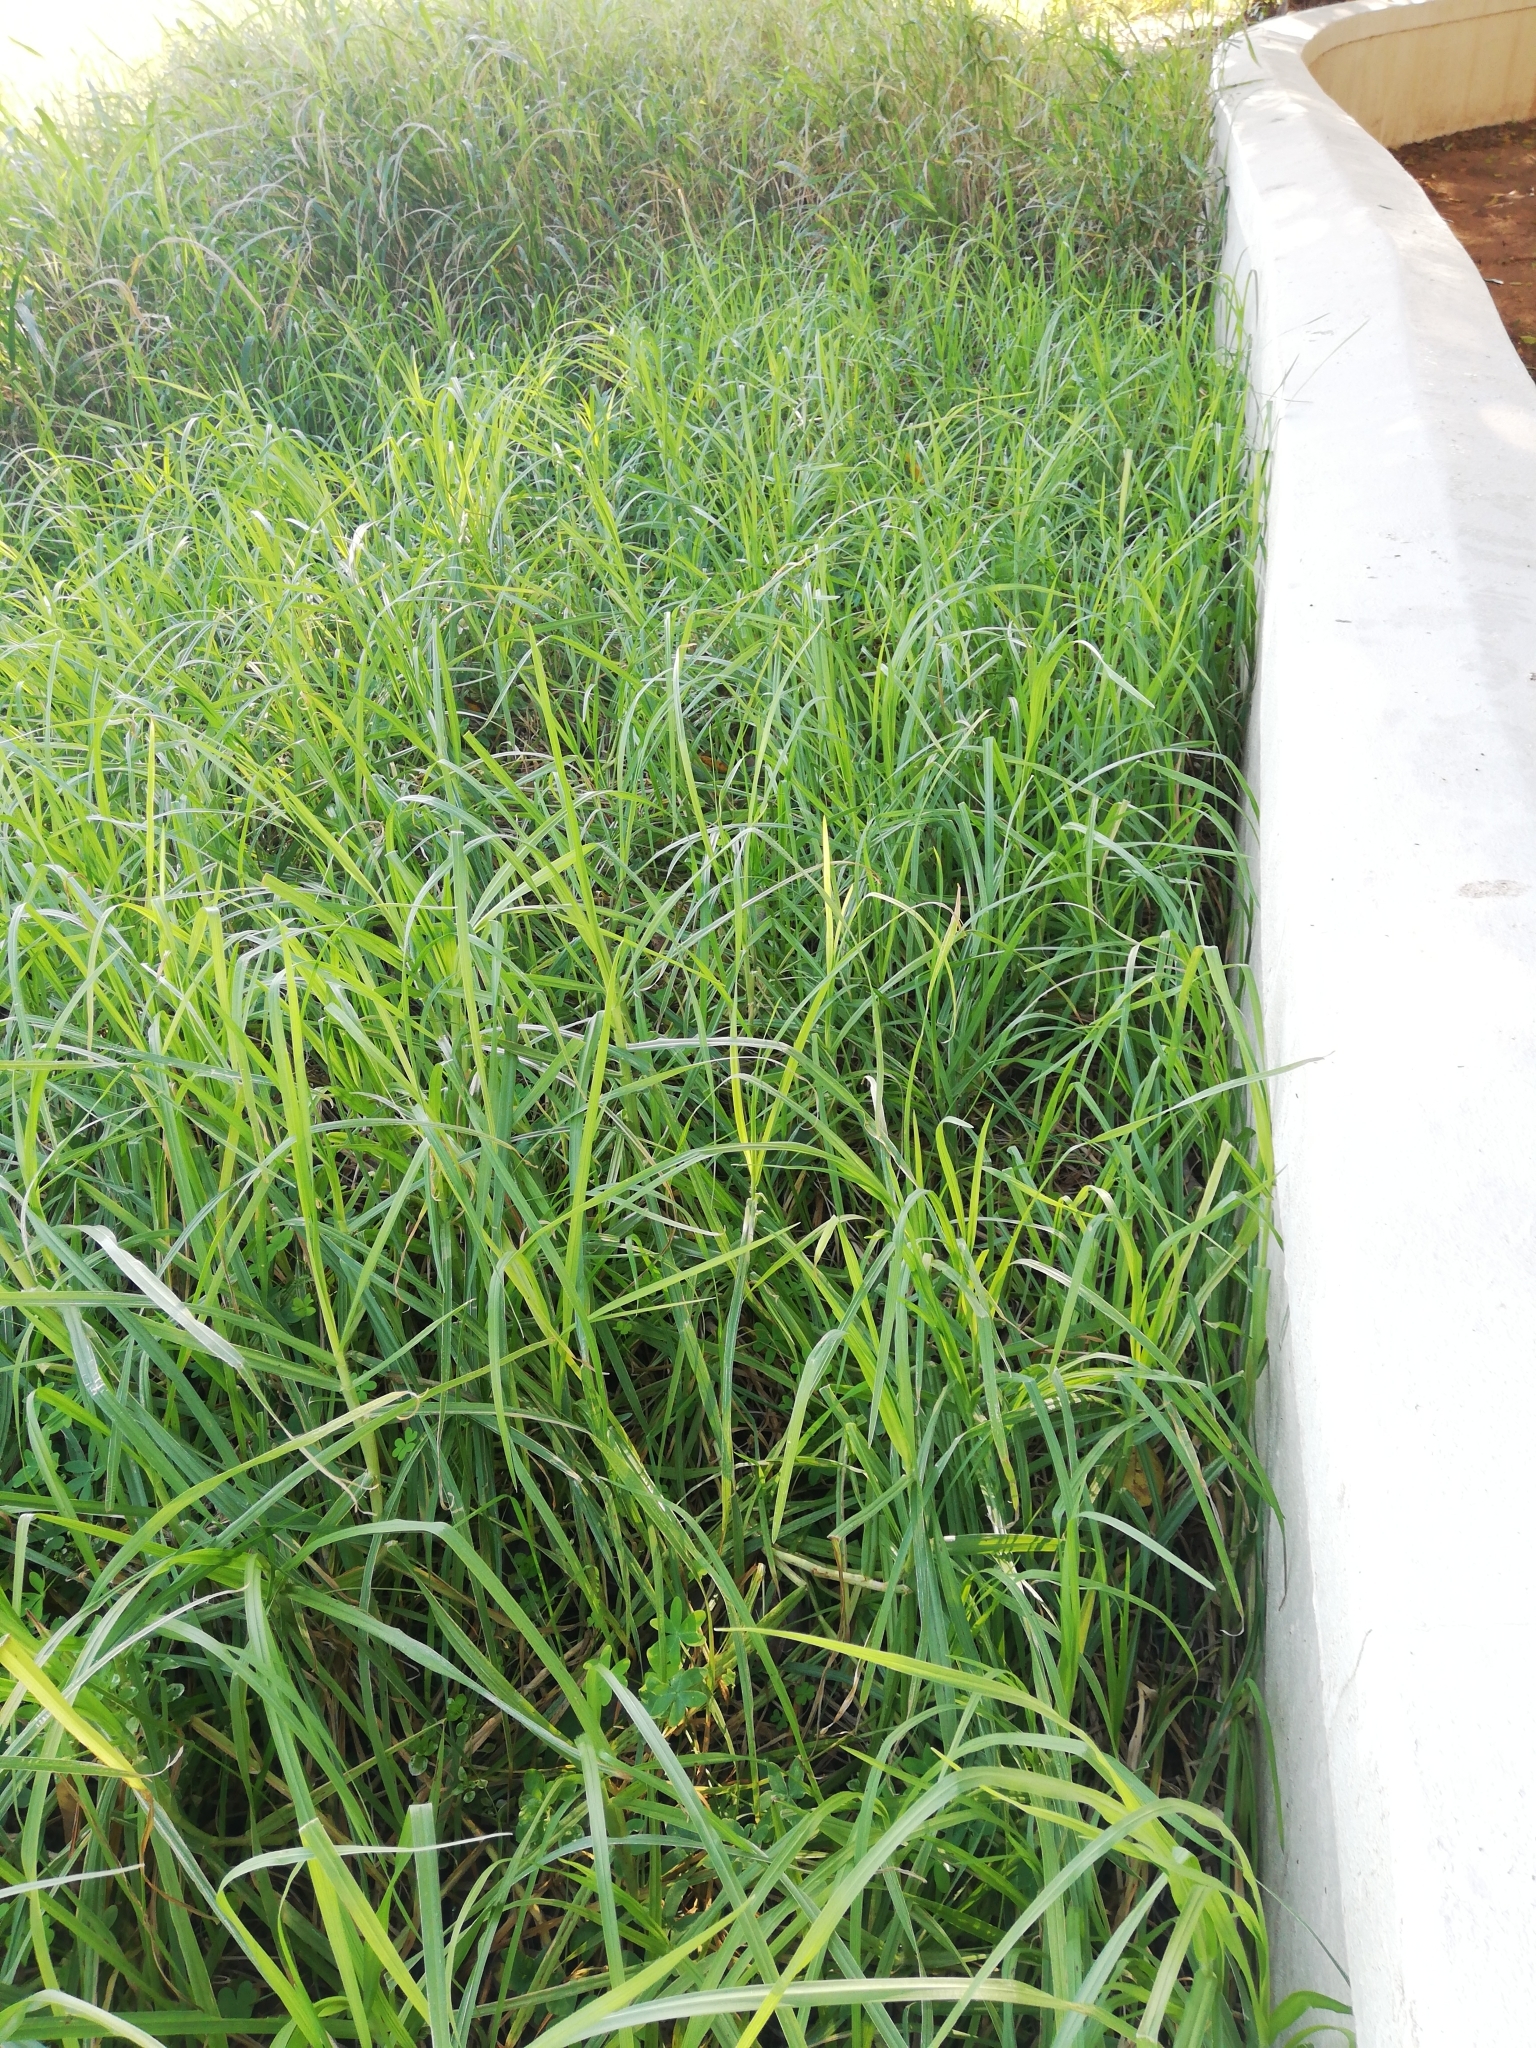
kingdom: Plantae
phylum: Tracheophyta
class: Liliopsida
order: Poales
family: Poaceae
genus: Cenchrus
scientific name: Cenchrus clandestinus
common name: Kikuyugrass
